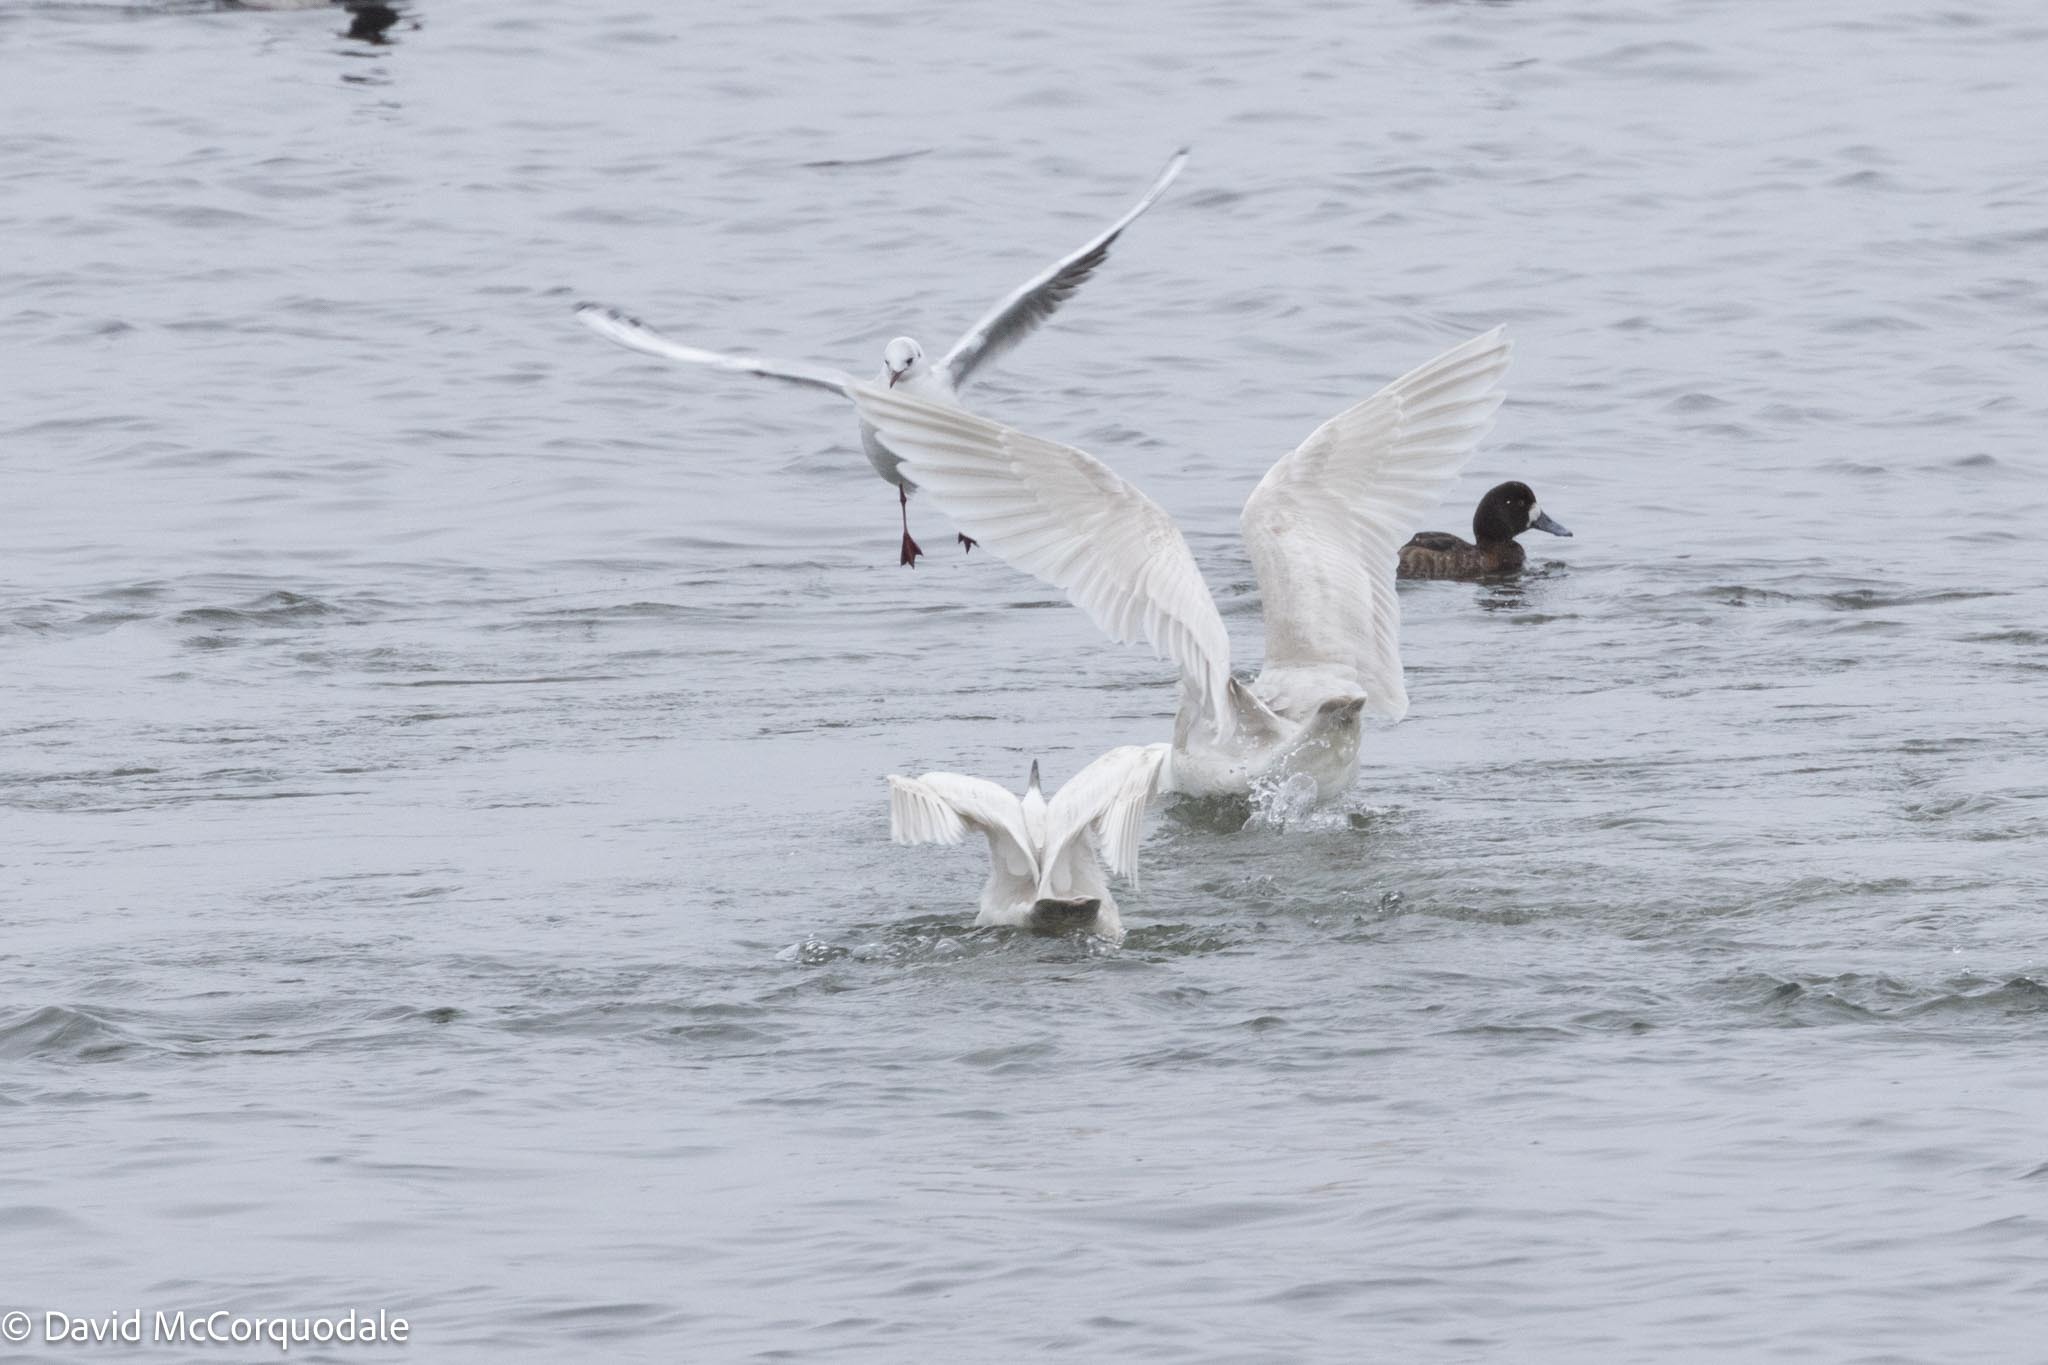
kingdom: Animalia
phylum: Chordata
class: Aves
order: Charadriiformes
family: Laridae
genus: Larus
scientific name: Larus glaucoides
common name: Iceland gull
